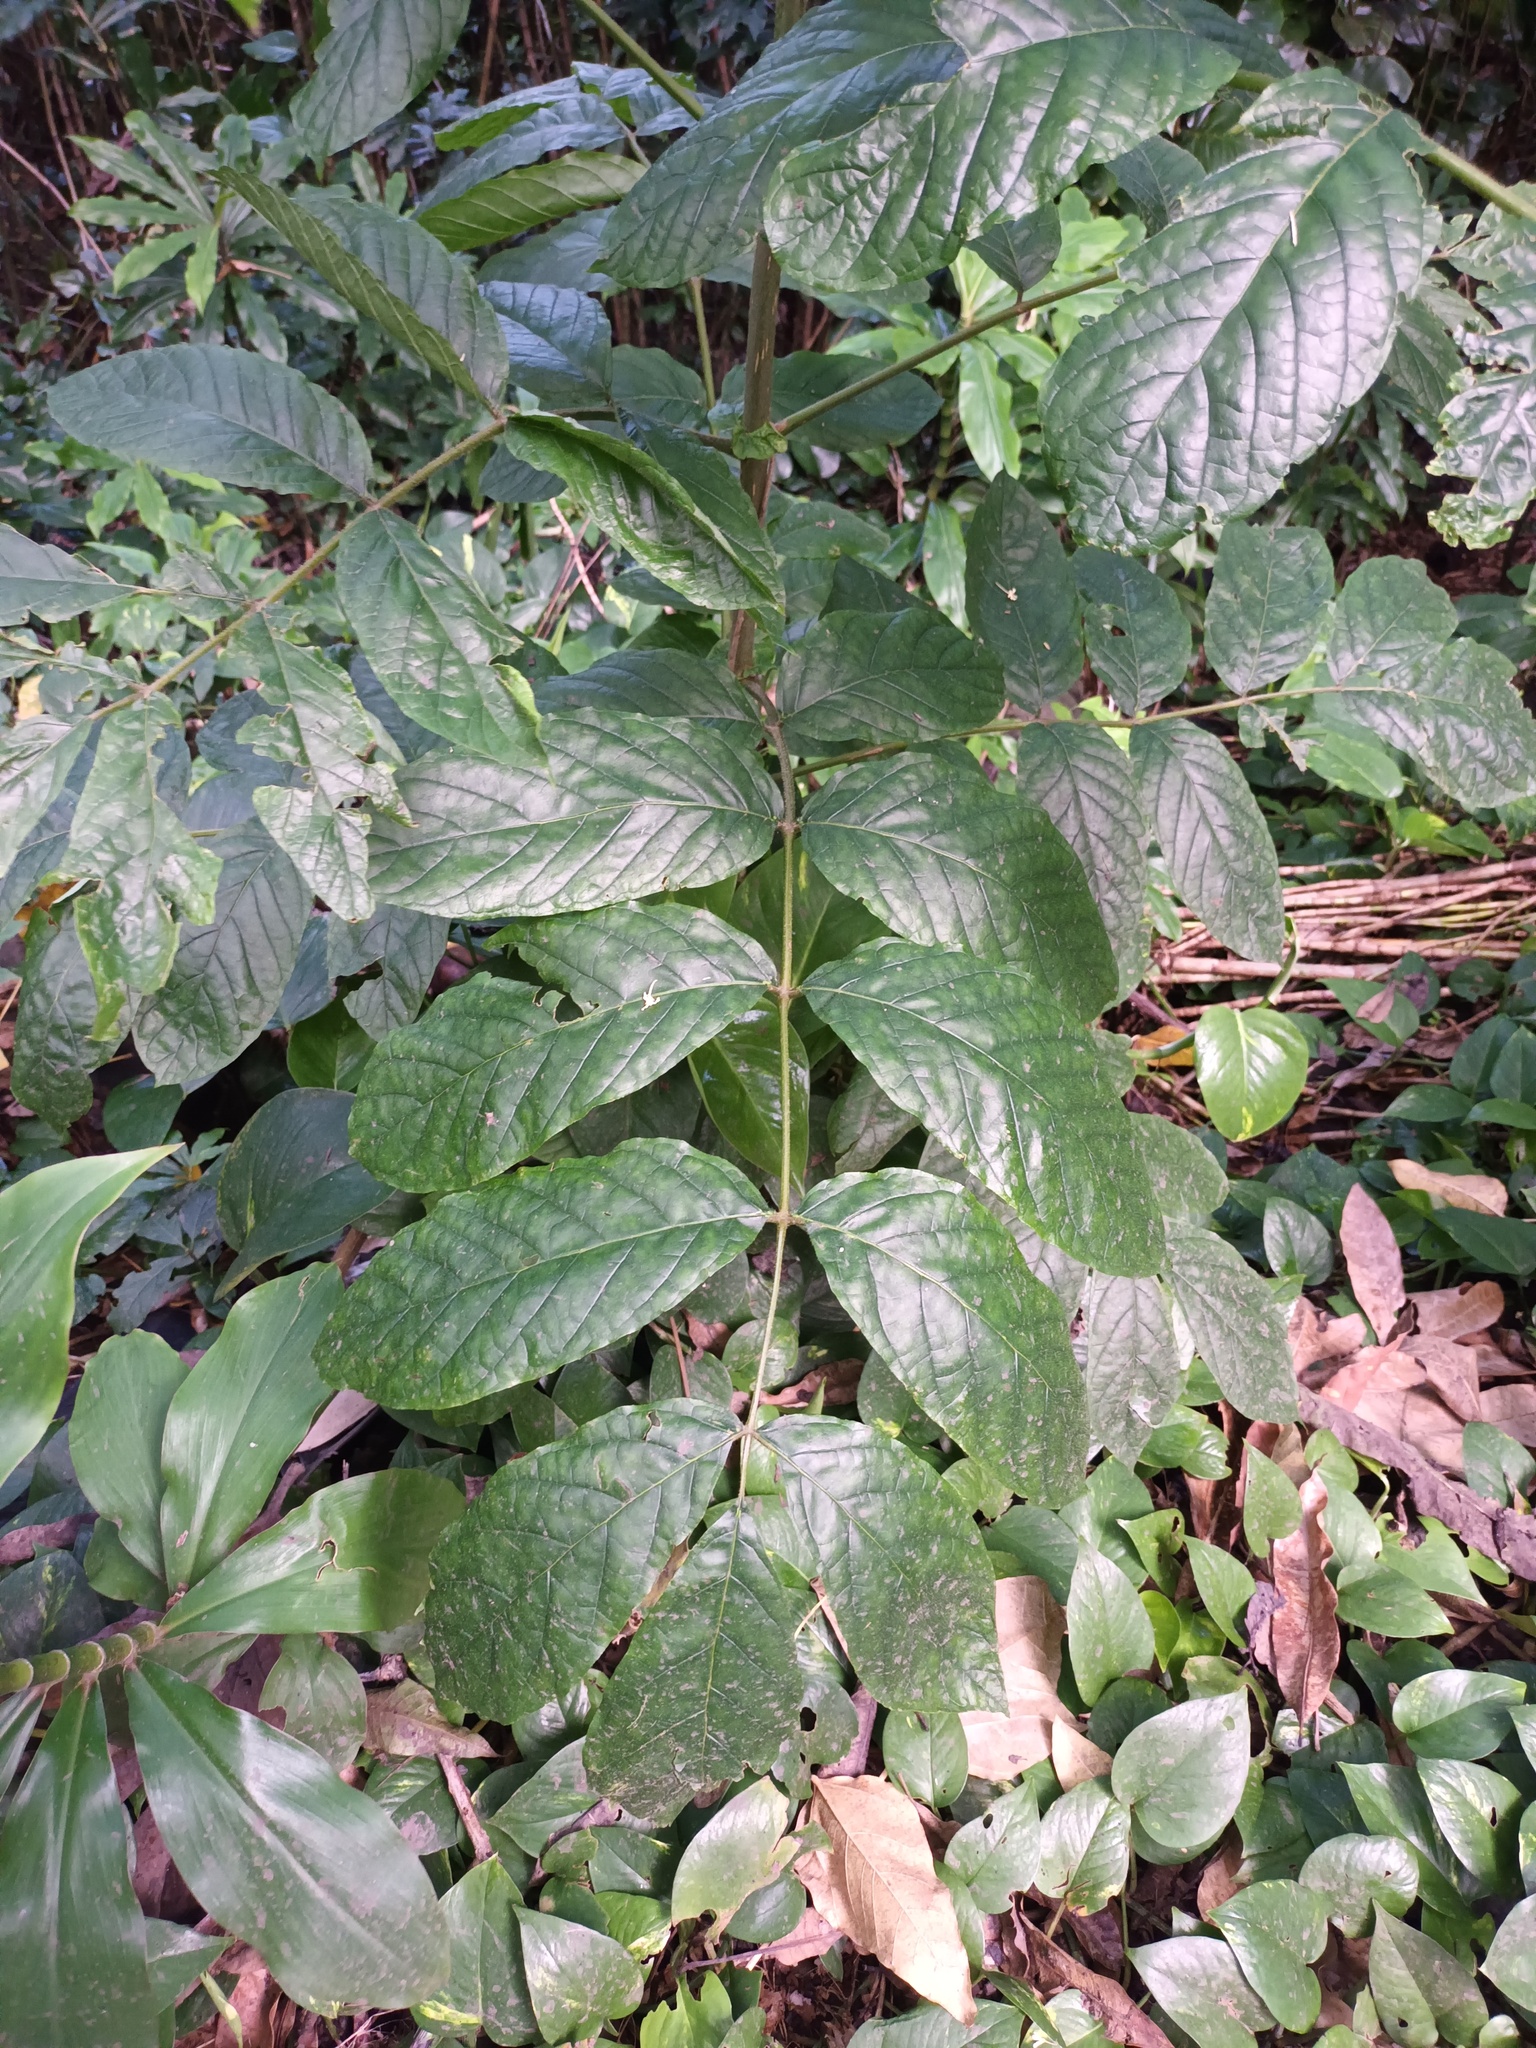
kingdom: Plantae
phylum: Tracheophyta
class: Magnoliopsida
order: Lamiales
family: Bignoniaceae
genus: Spathodea
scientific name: Spathodea campanulata
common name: African tuliptree
